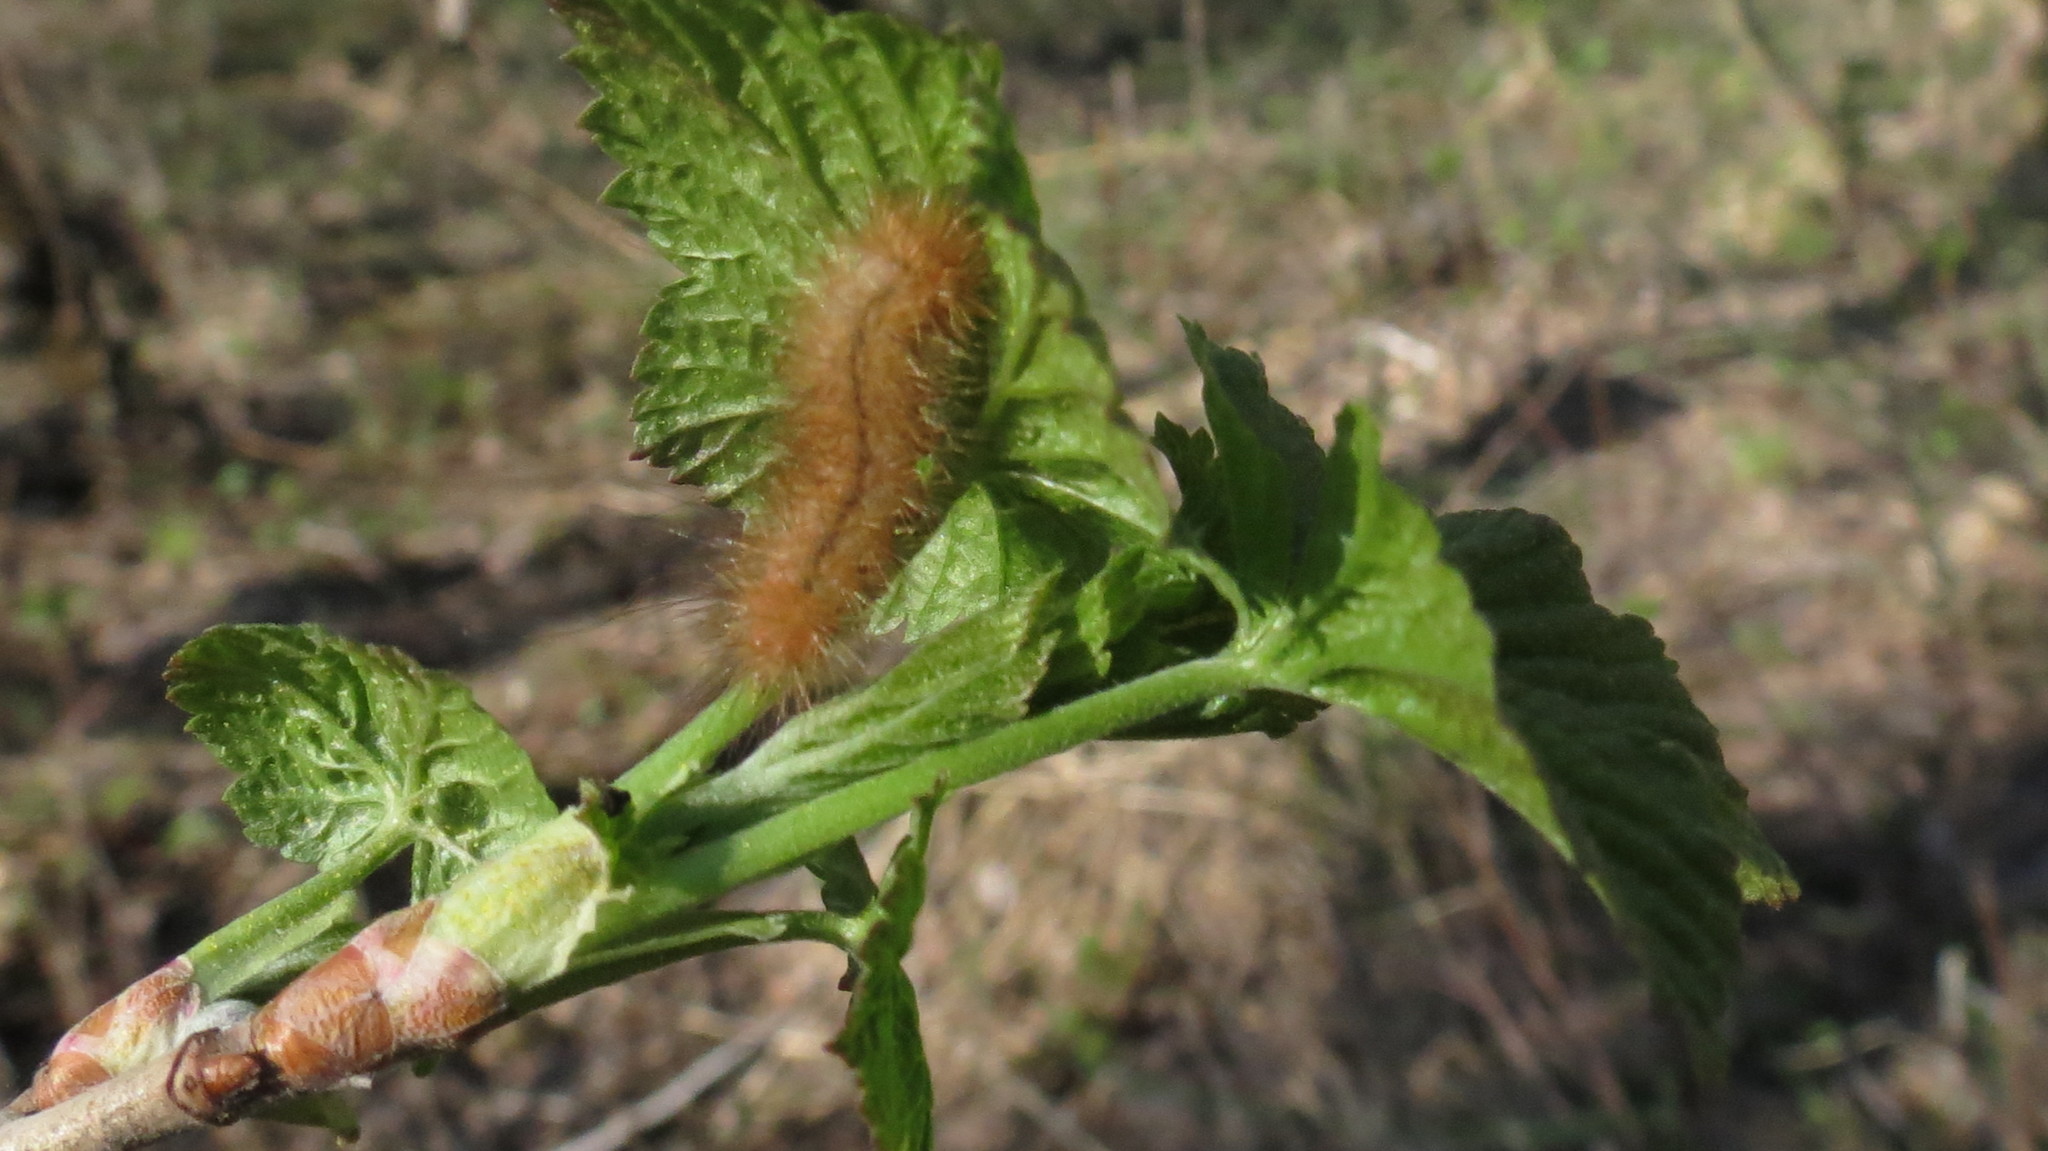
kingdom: Plantae
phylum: Tracheophyta
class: Magnoliopsida
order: Saxifragales
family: Grossulariaceae
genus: Ribes
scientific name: Ribes nigrum
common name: Black currant
